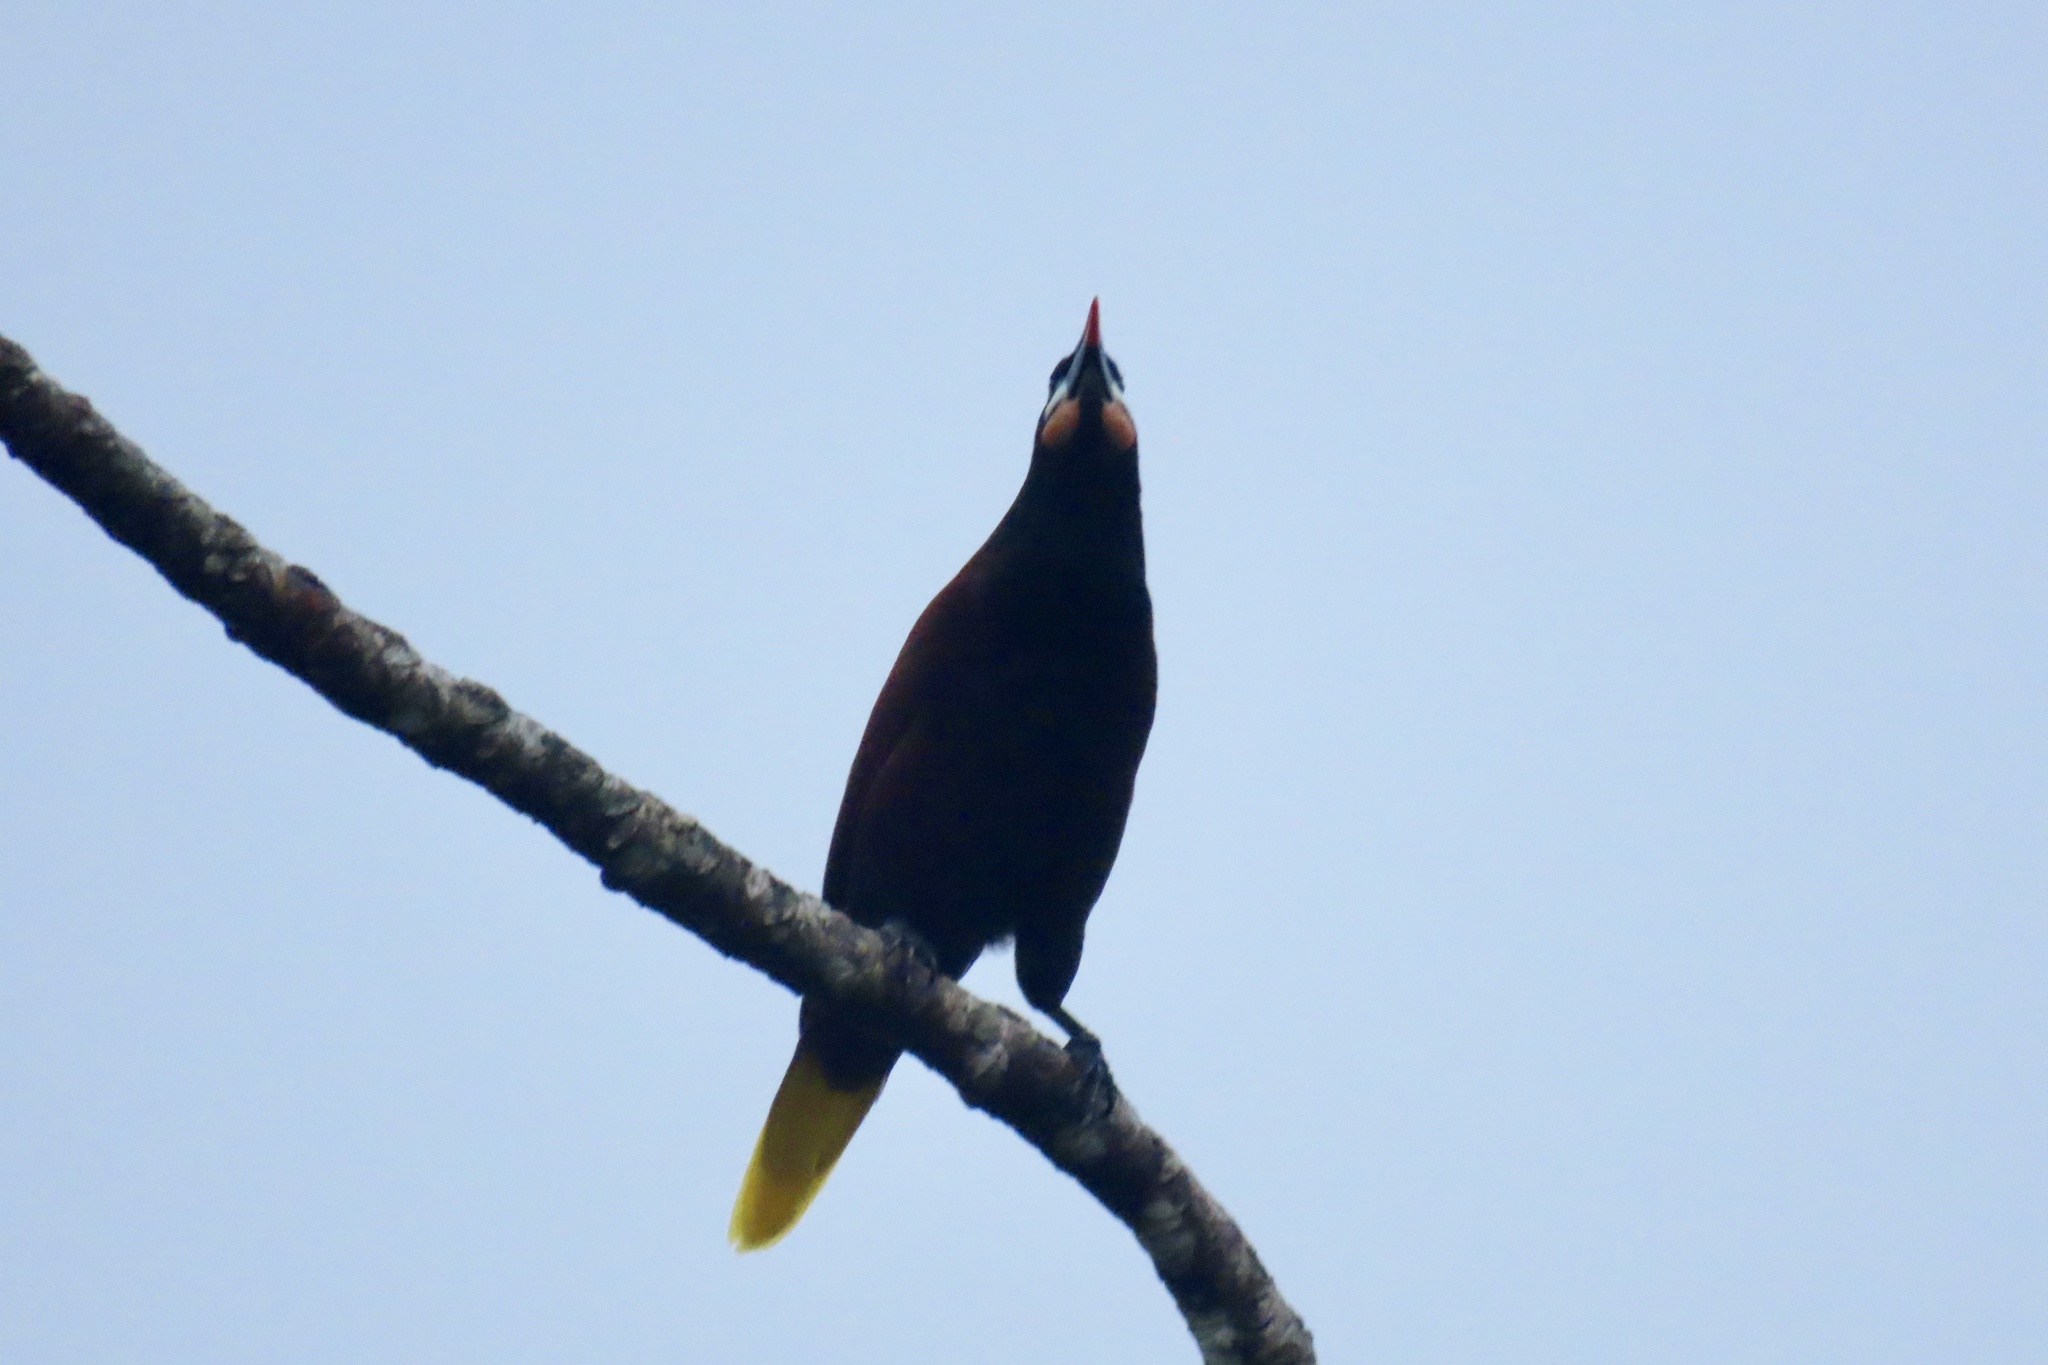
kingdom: Animalia
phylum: Chordata
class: Aves
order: Passeriformes
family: Icteridae
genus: Psarocolius
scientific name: Psarocolius montezuma
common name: Montezuma oropendola
